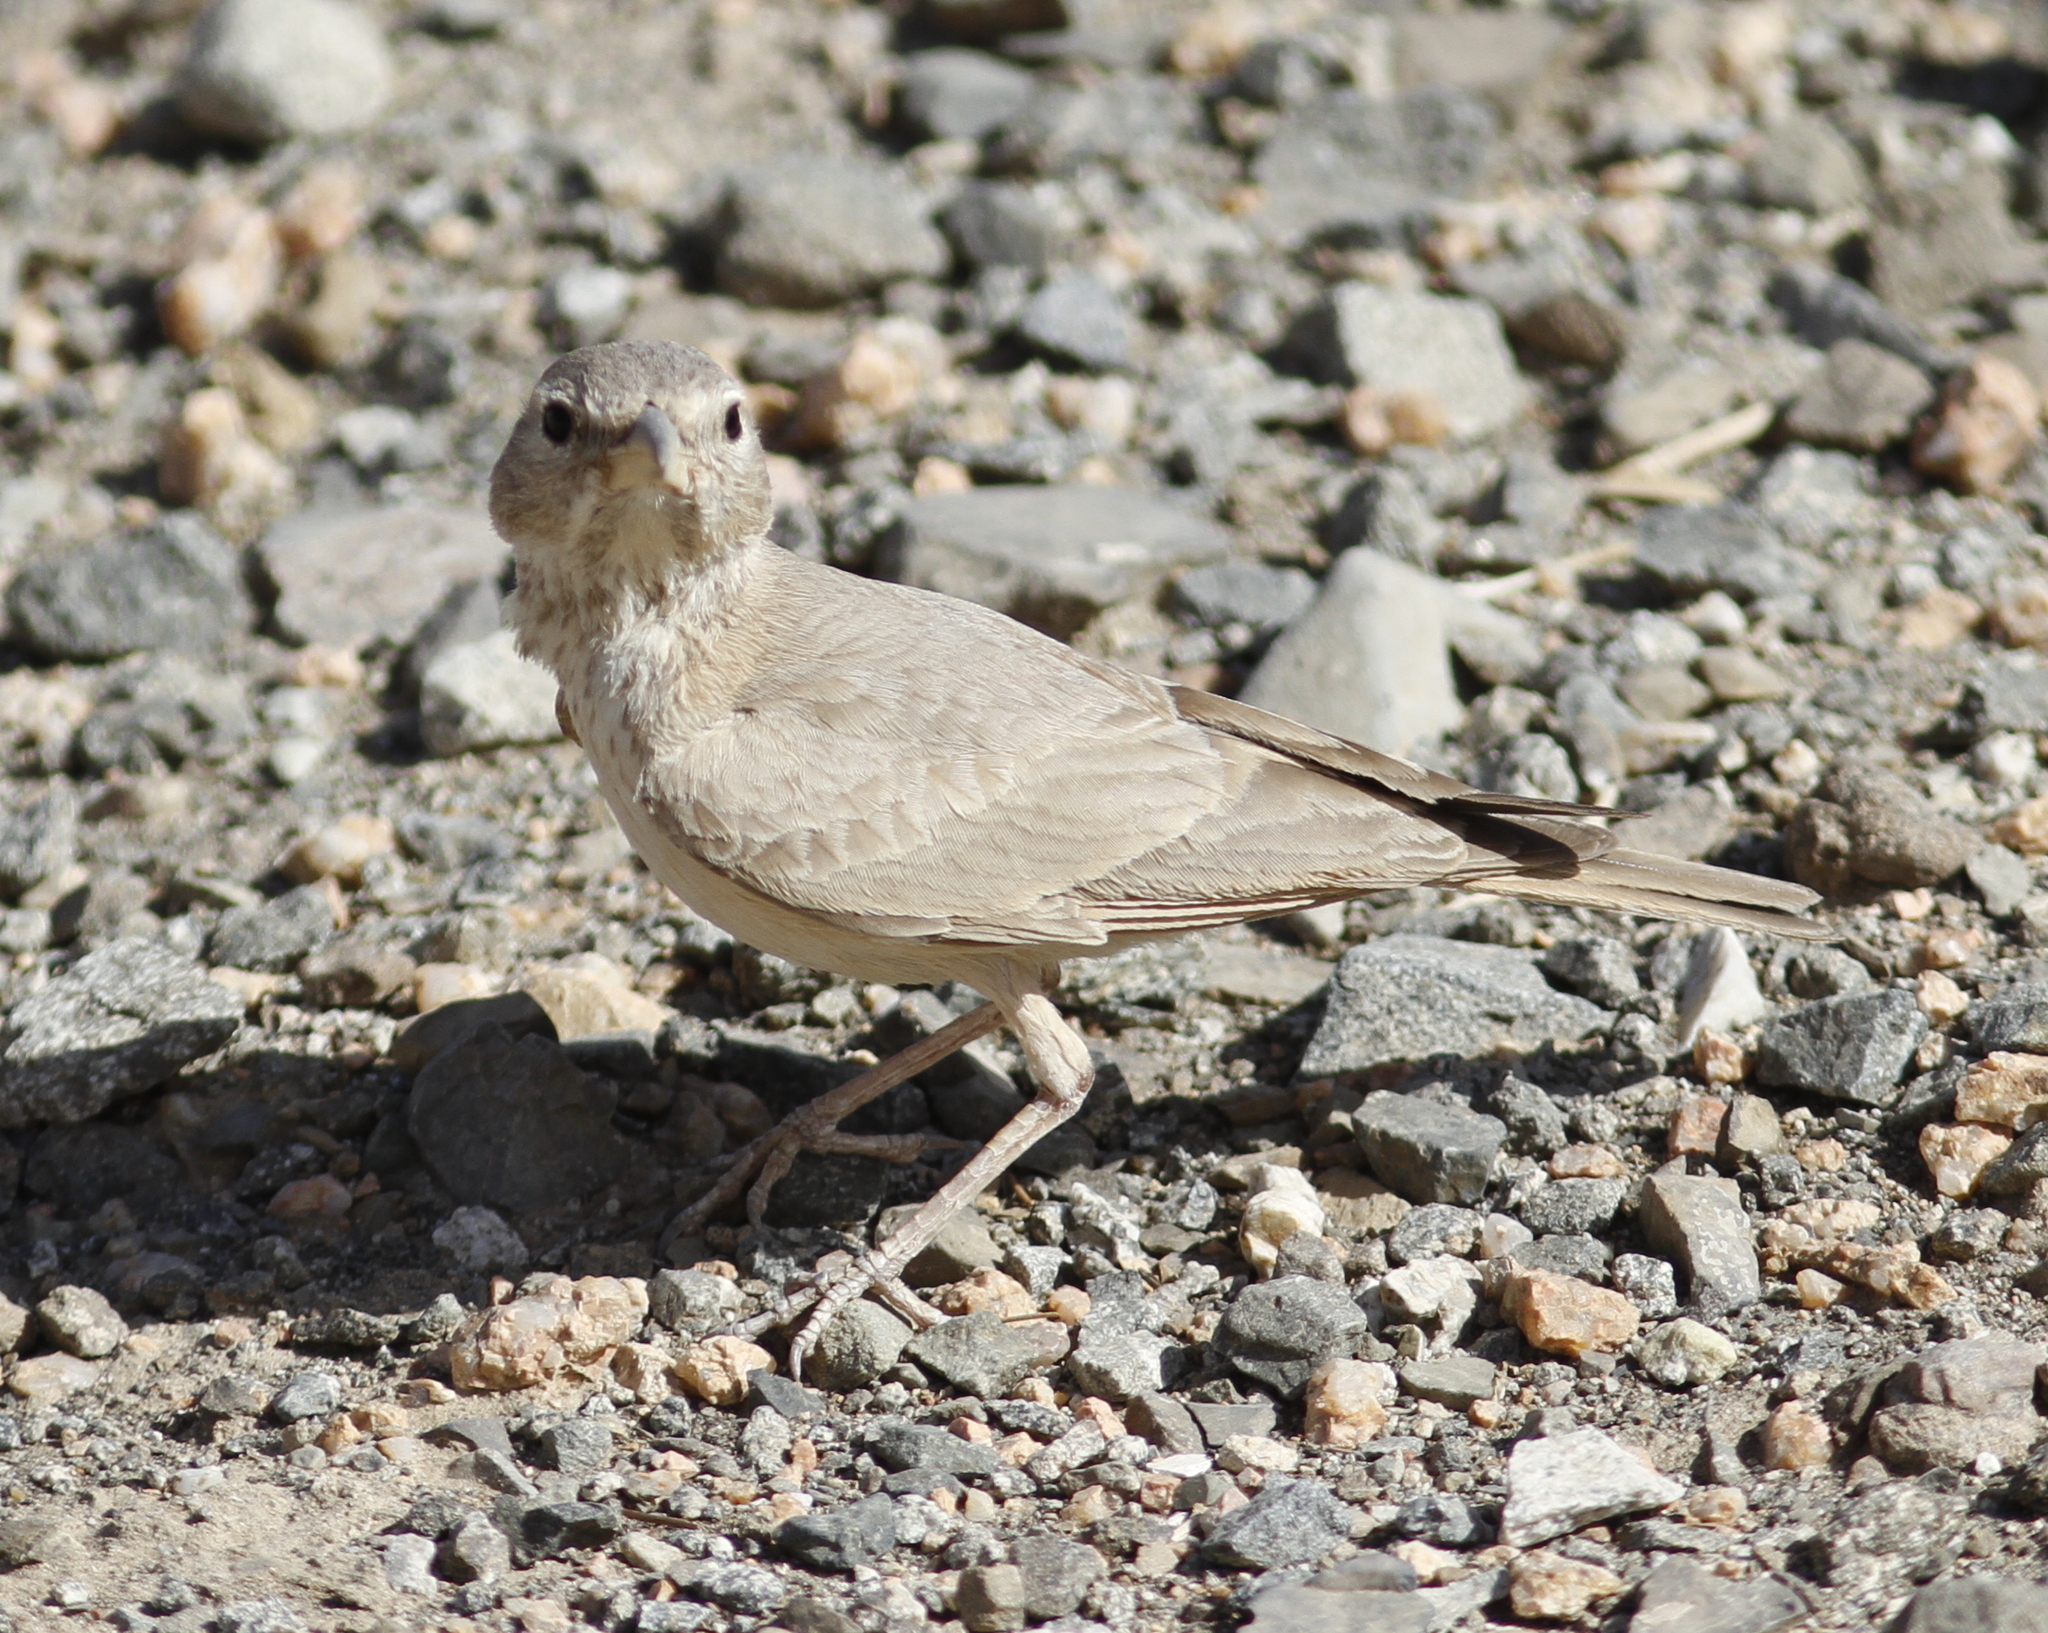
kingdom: Animalia
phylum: Chordata
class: Aves
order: Passeriformes
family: Alaudidae
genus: Ammomanes
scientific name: Ammomanes deserti
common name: Desert lark
